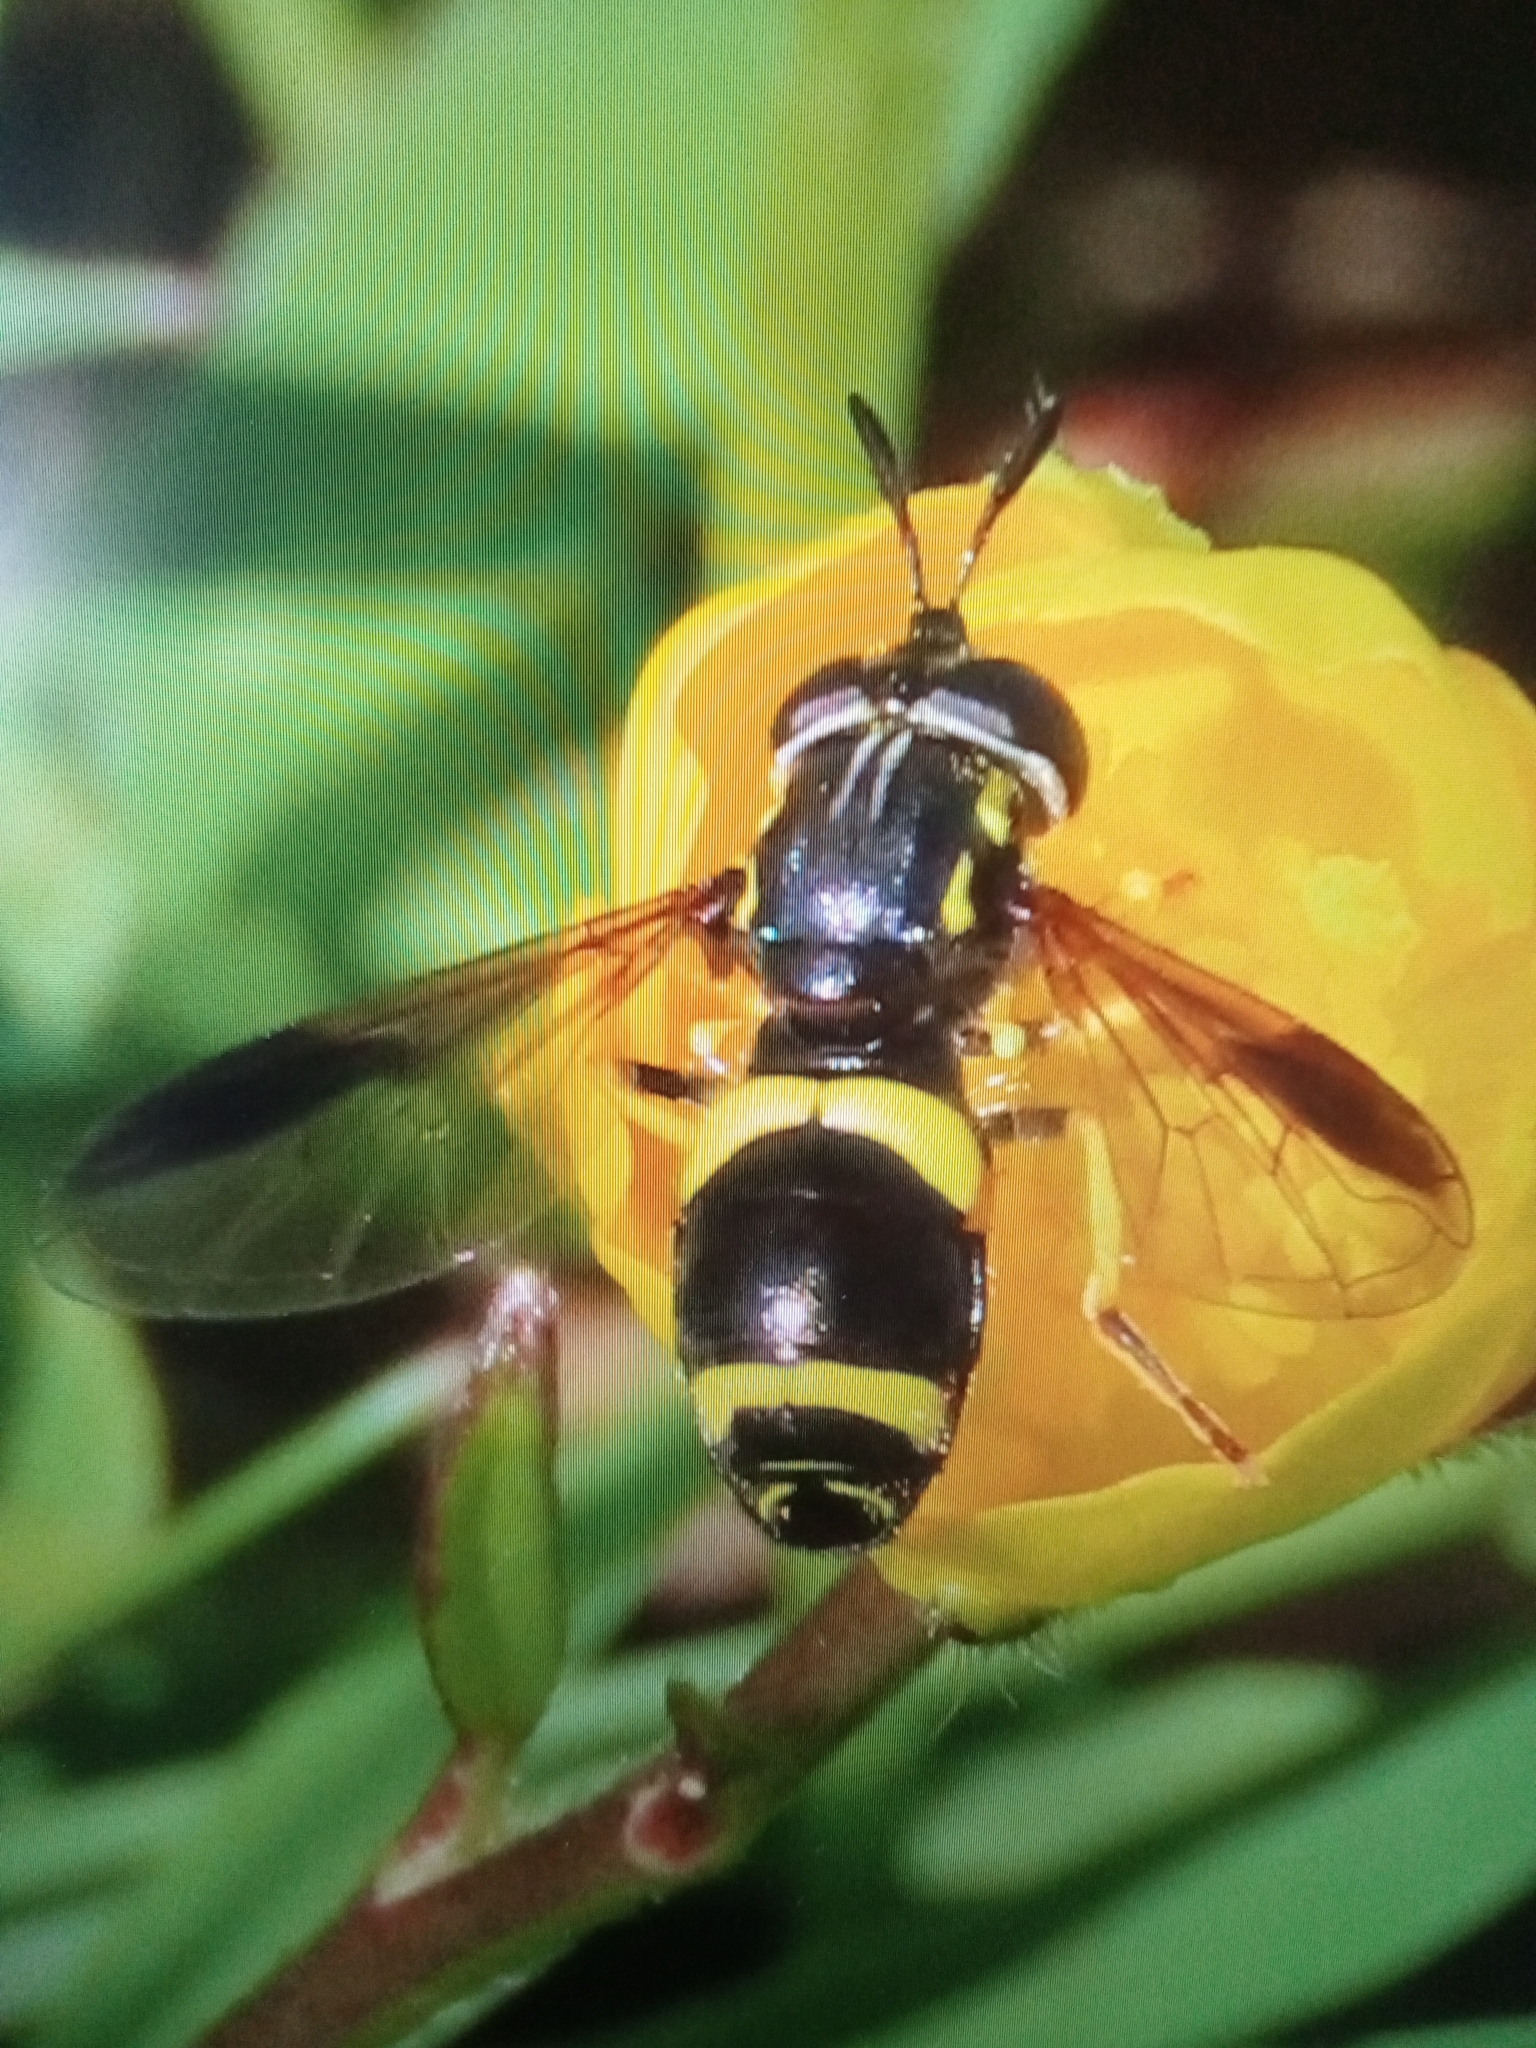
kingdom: Animalia
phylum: Arthropoda
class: Insecta
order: Diptera
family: Syrphidae
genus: Chrysotoxum
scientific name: Chrysotoxum bicincta
